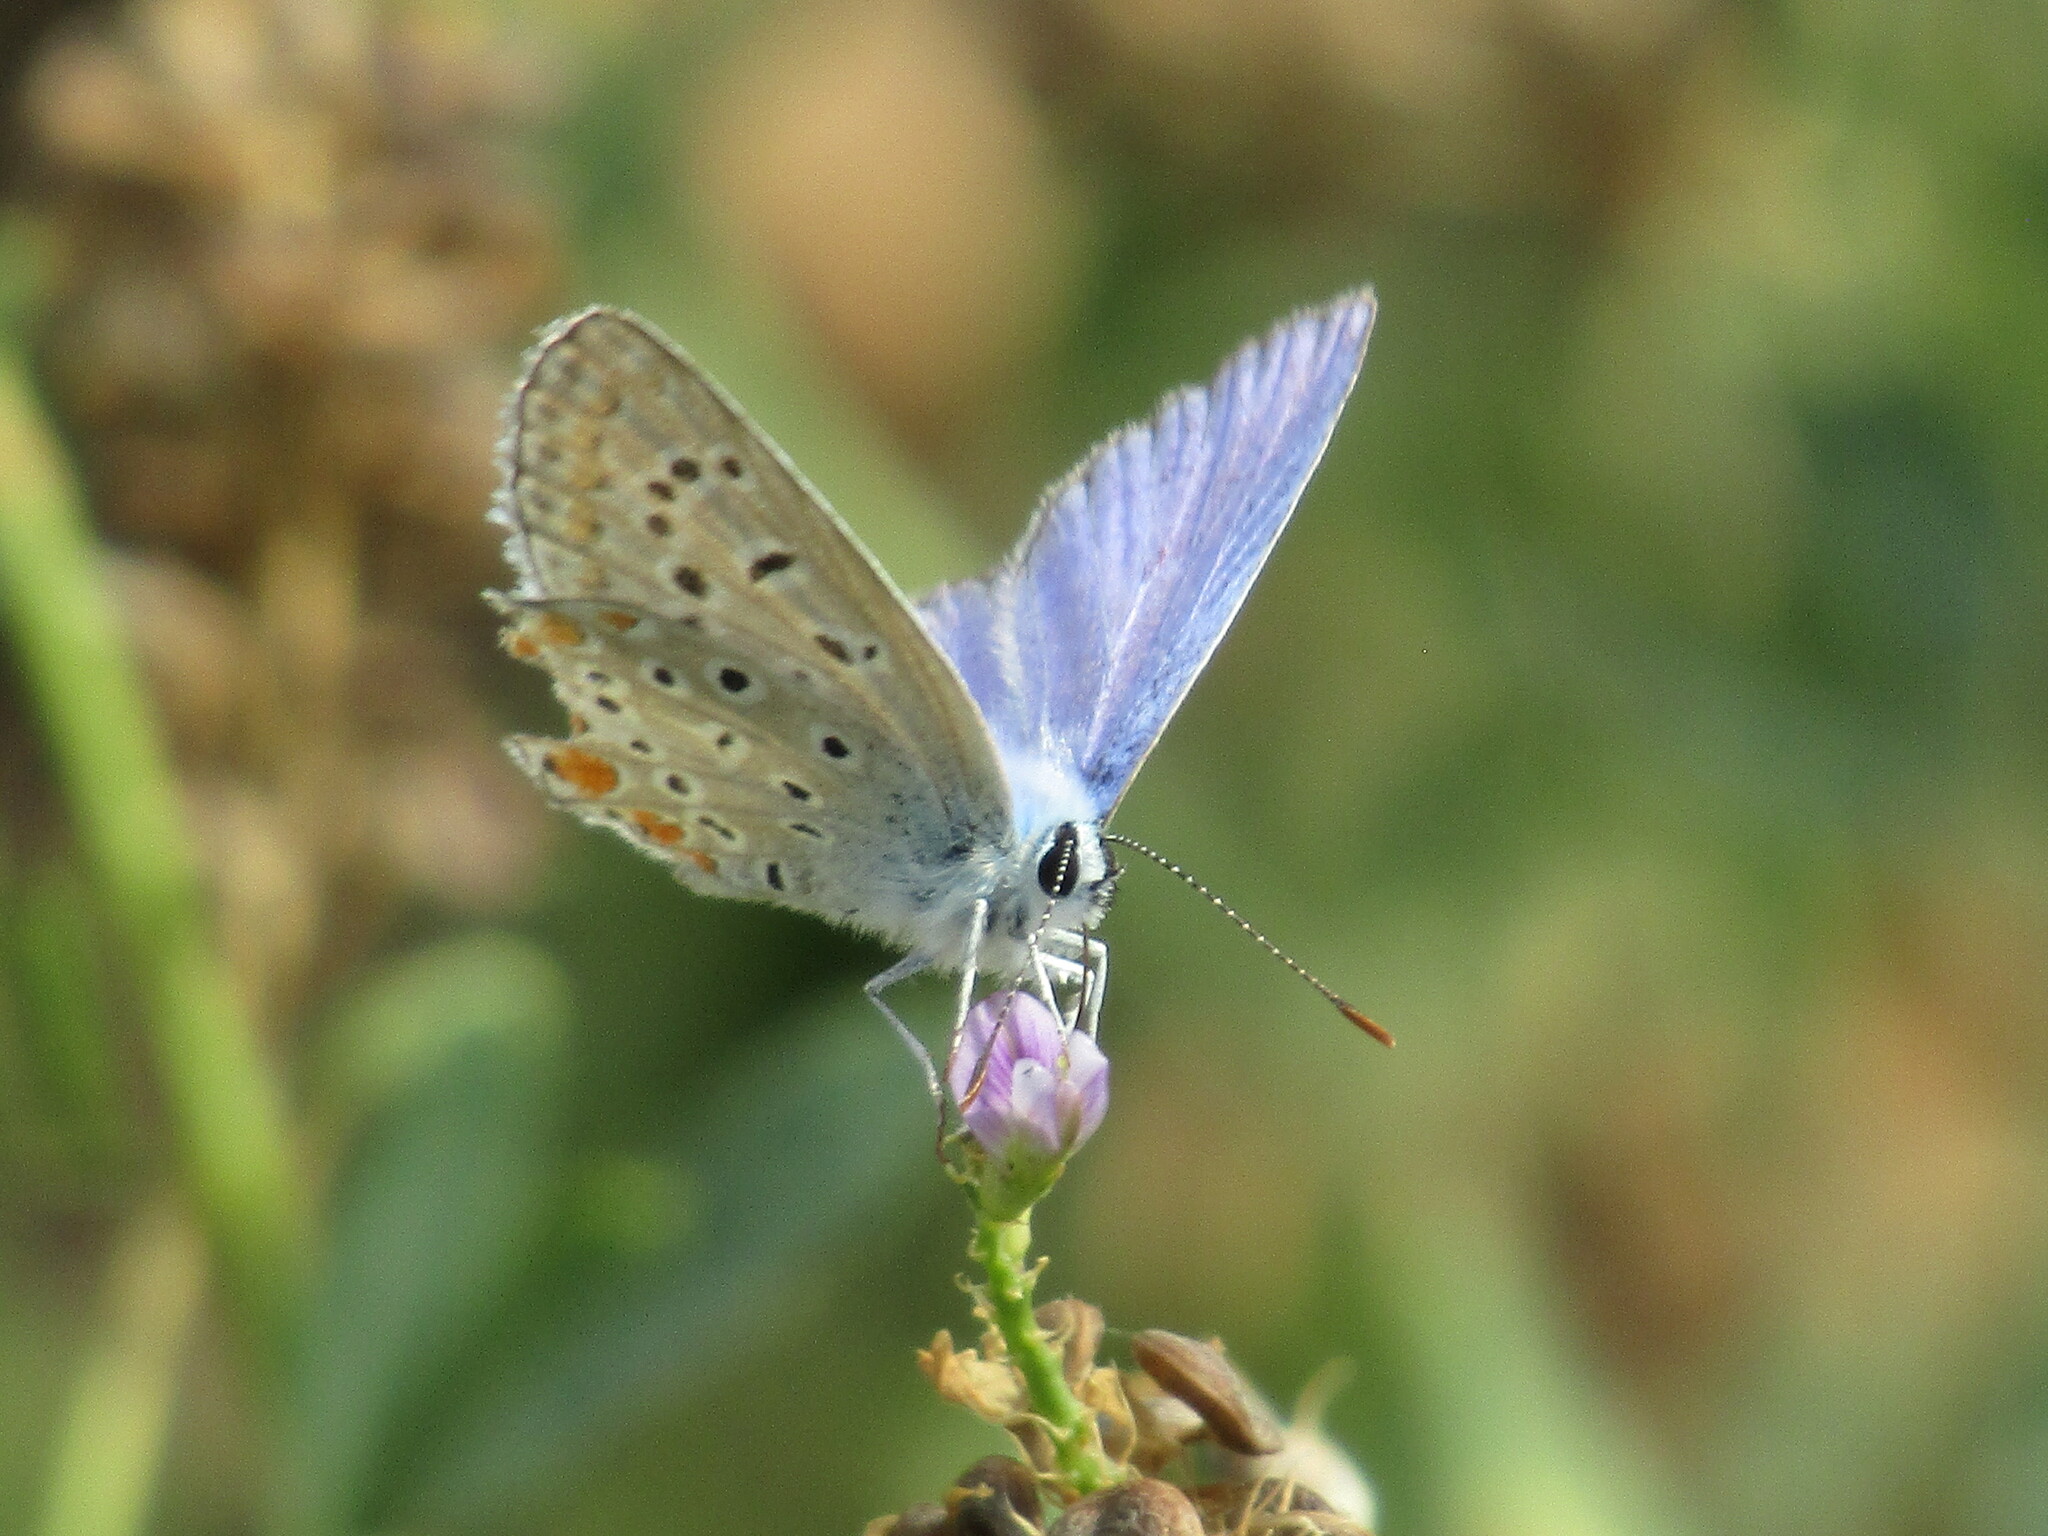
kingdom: Animalia
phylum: Arthropoda
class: Insecta
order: Lepidoptera
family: Lycaenidae
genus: Polyommatus
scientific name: Polyommatus icarus
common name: Common blue
